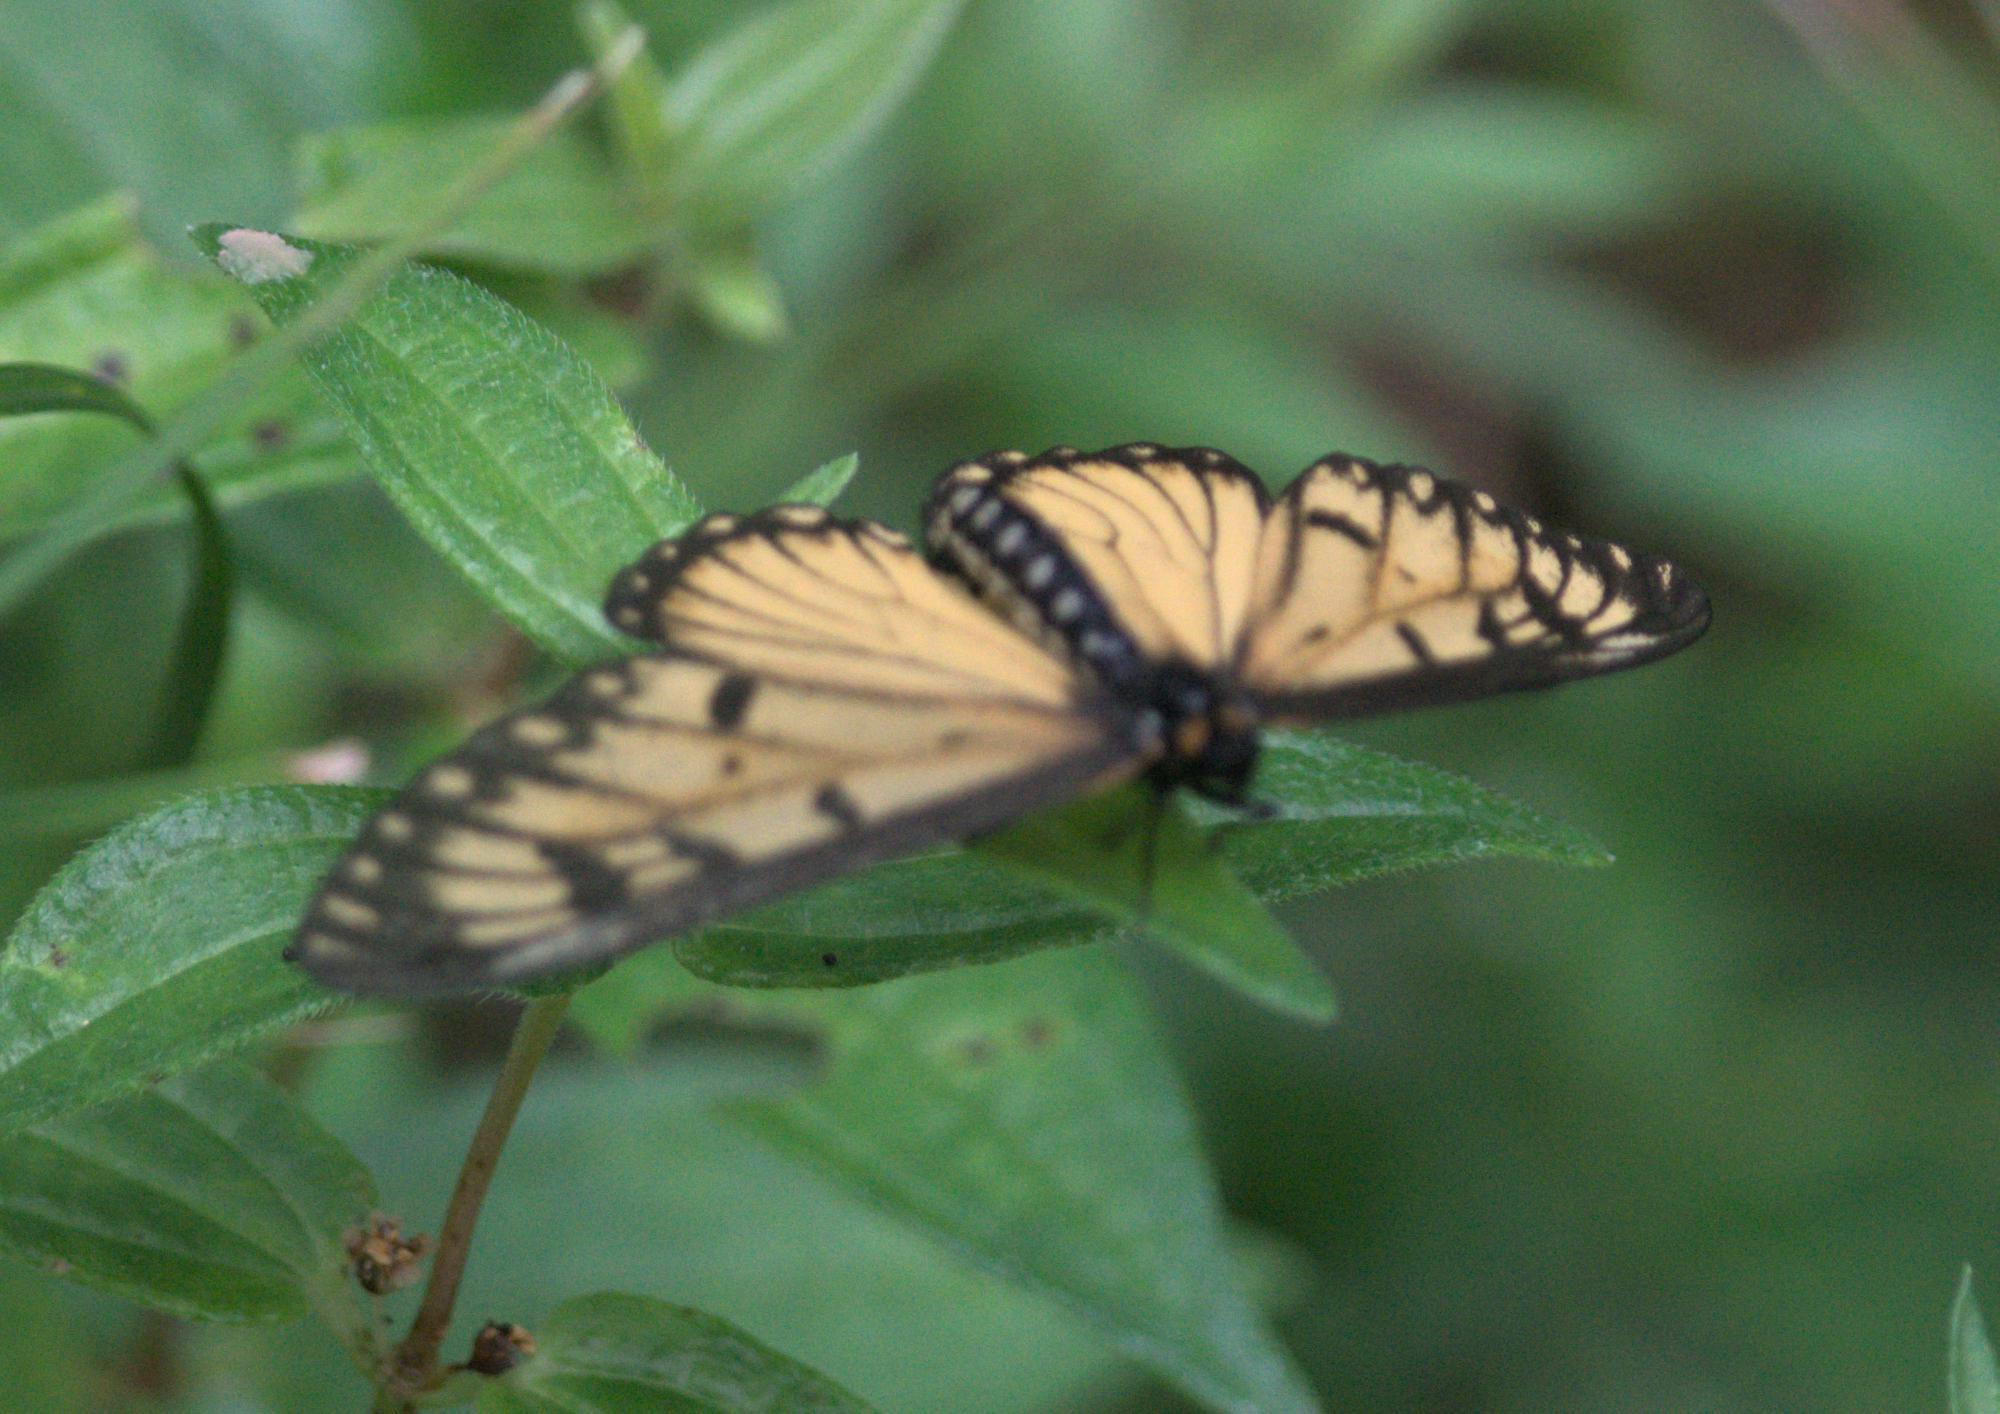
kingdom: Animalia
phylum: Arthropoda
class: Insecta
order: Lepidoptera
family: Nymphalidae
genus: Acraea
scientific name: Acraea Telchinia issoria
